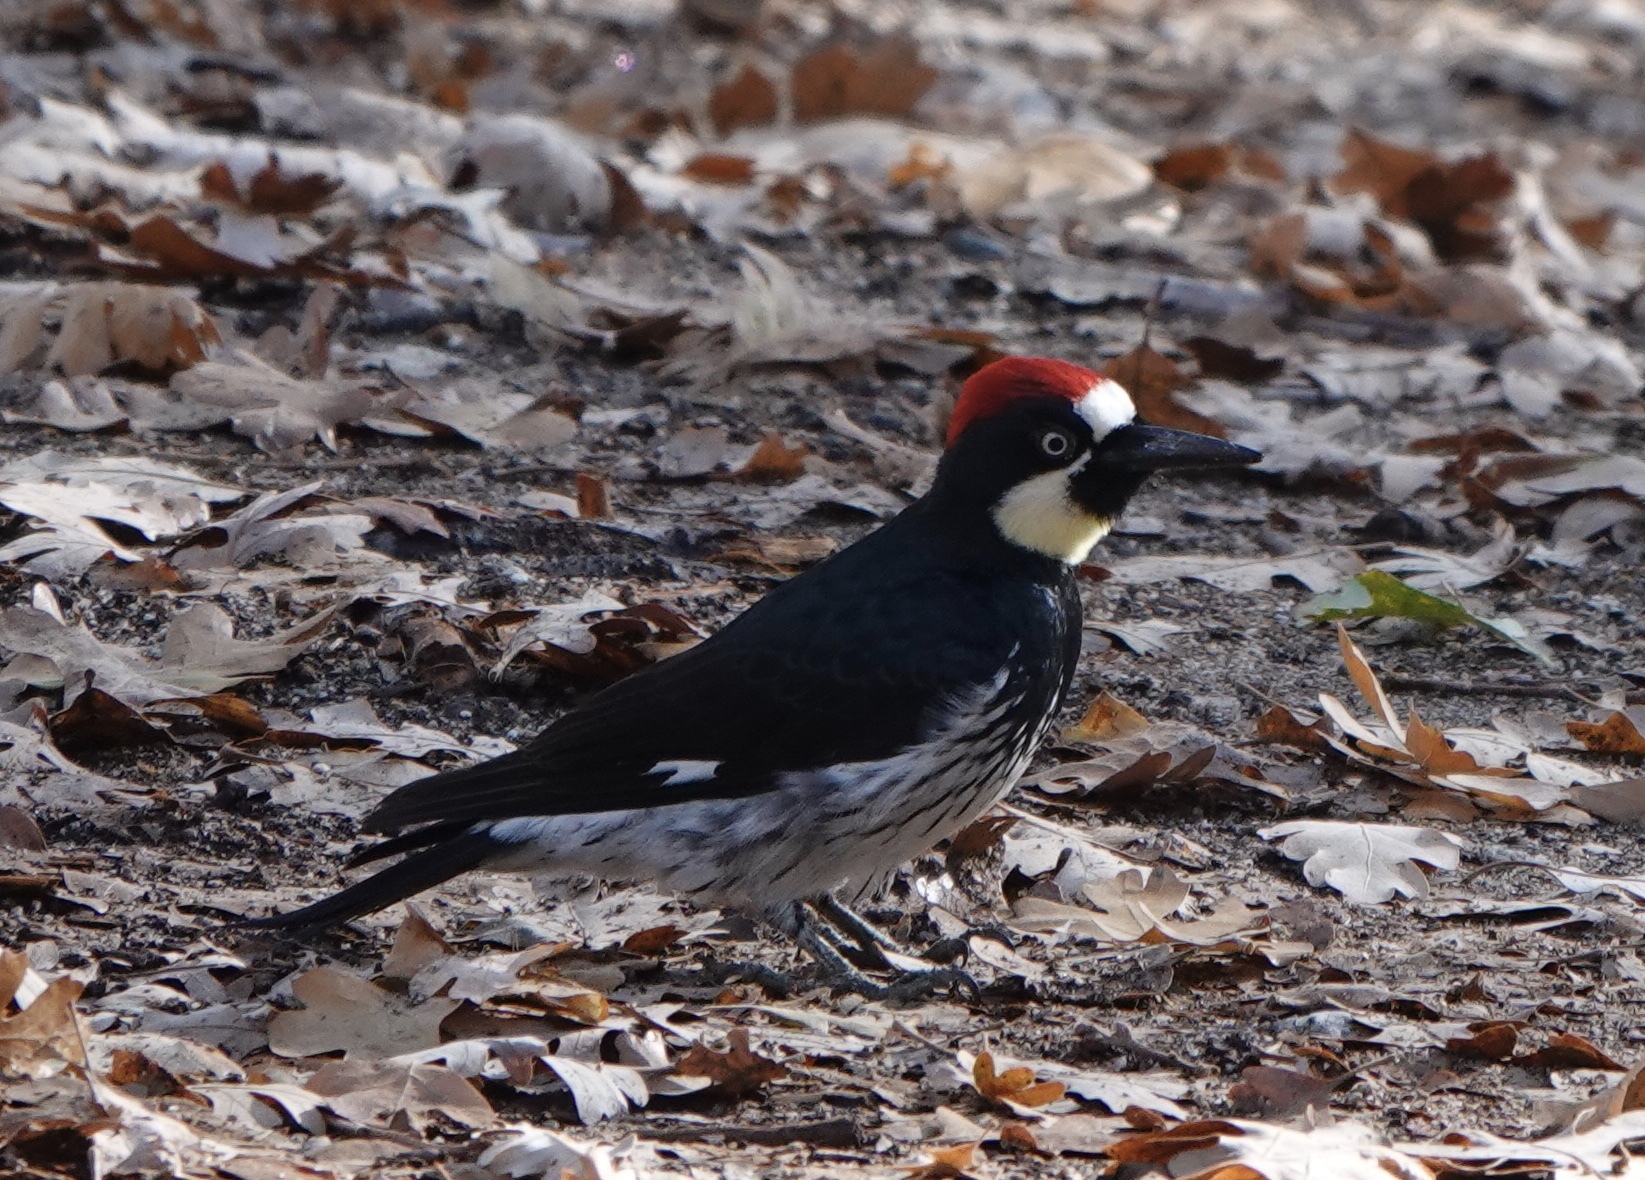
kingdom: Animalia
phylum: Chordata
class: Aves
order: Piciformes
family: Picidae
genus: Melanerpes
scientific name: Melanerpes formicivorus
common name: Acorn woodpecker
